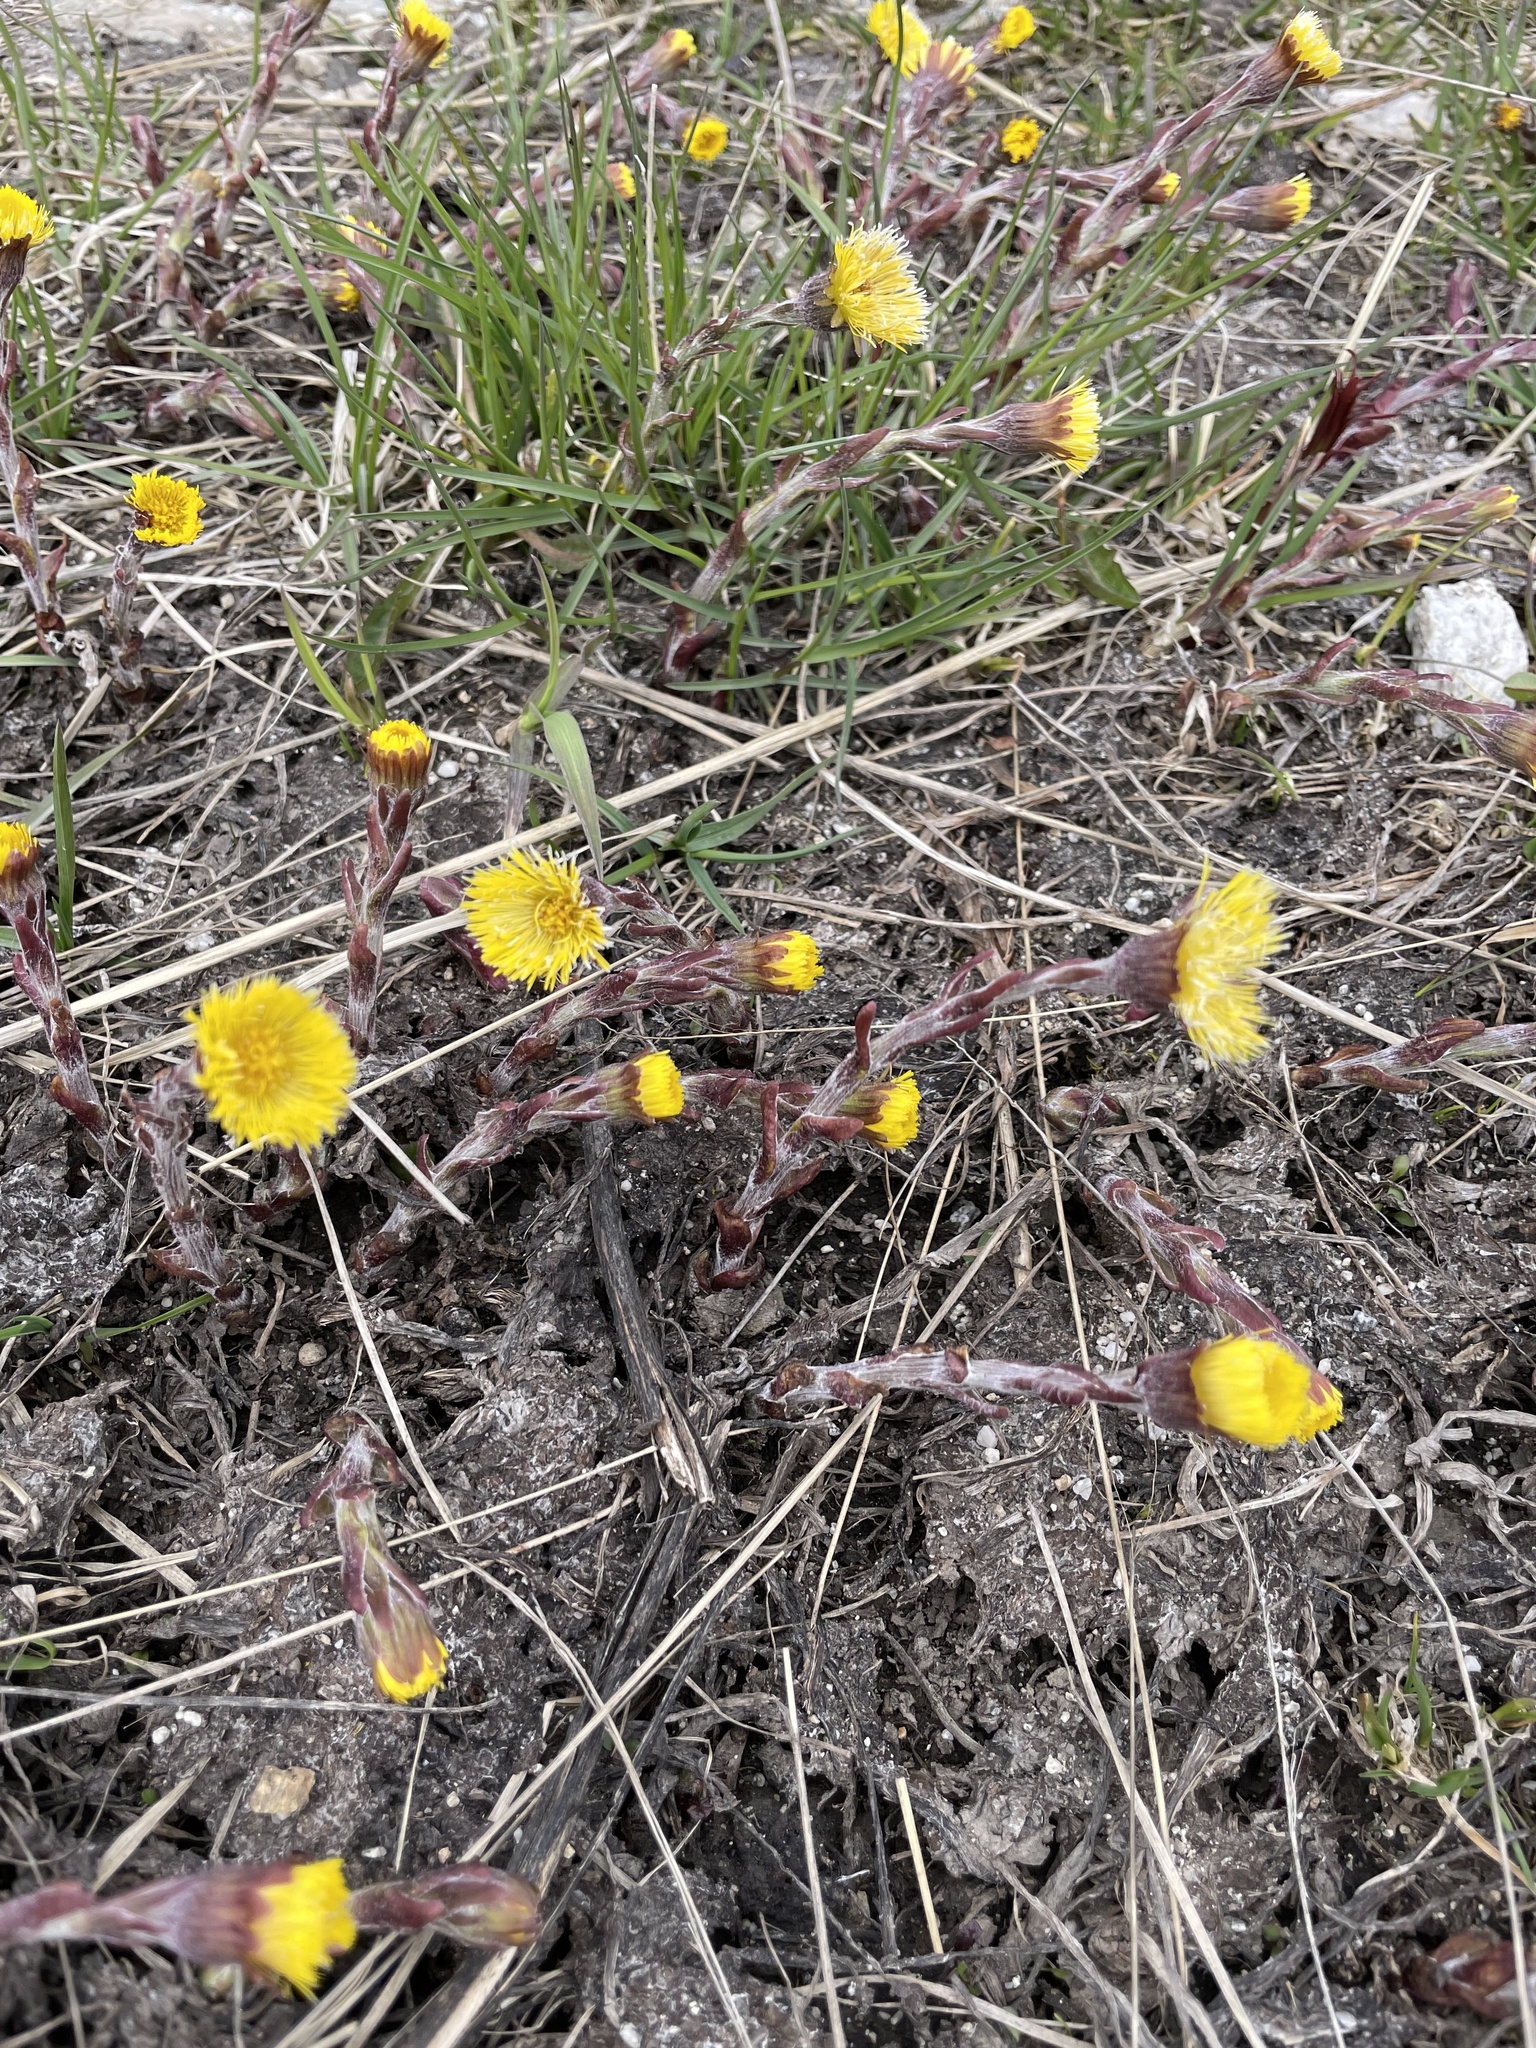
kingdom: Plantae
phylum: Tracheophyta
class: Magnoliopsida
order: Asterales
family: Asteraceae
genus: Tussilago
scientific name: Tussilago farfara
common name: Coltsfoot
